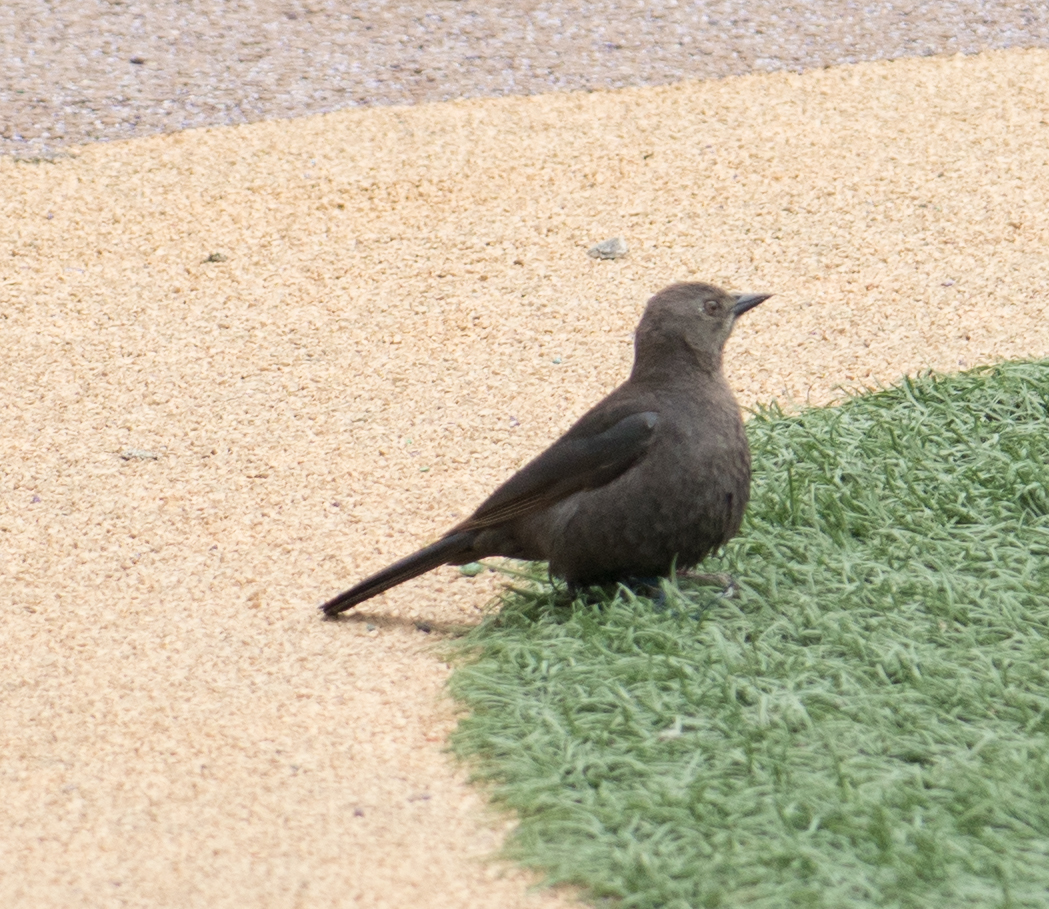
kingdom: Animalia
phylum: Chordata
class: Aves
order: Passeriformes
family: Icteridae
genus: Euphagus
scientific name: Euphagus cyanocephalus
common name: Brewer's blackbird
